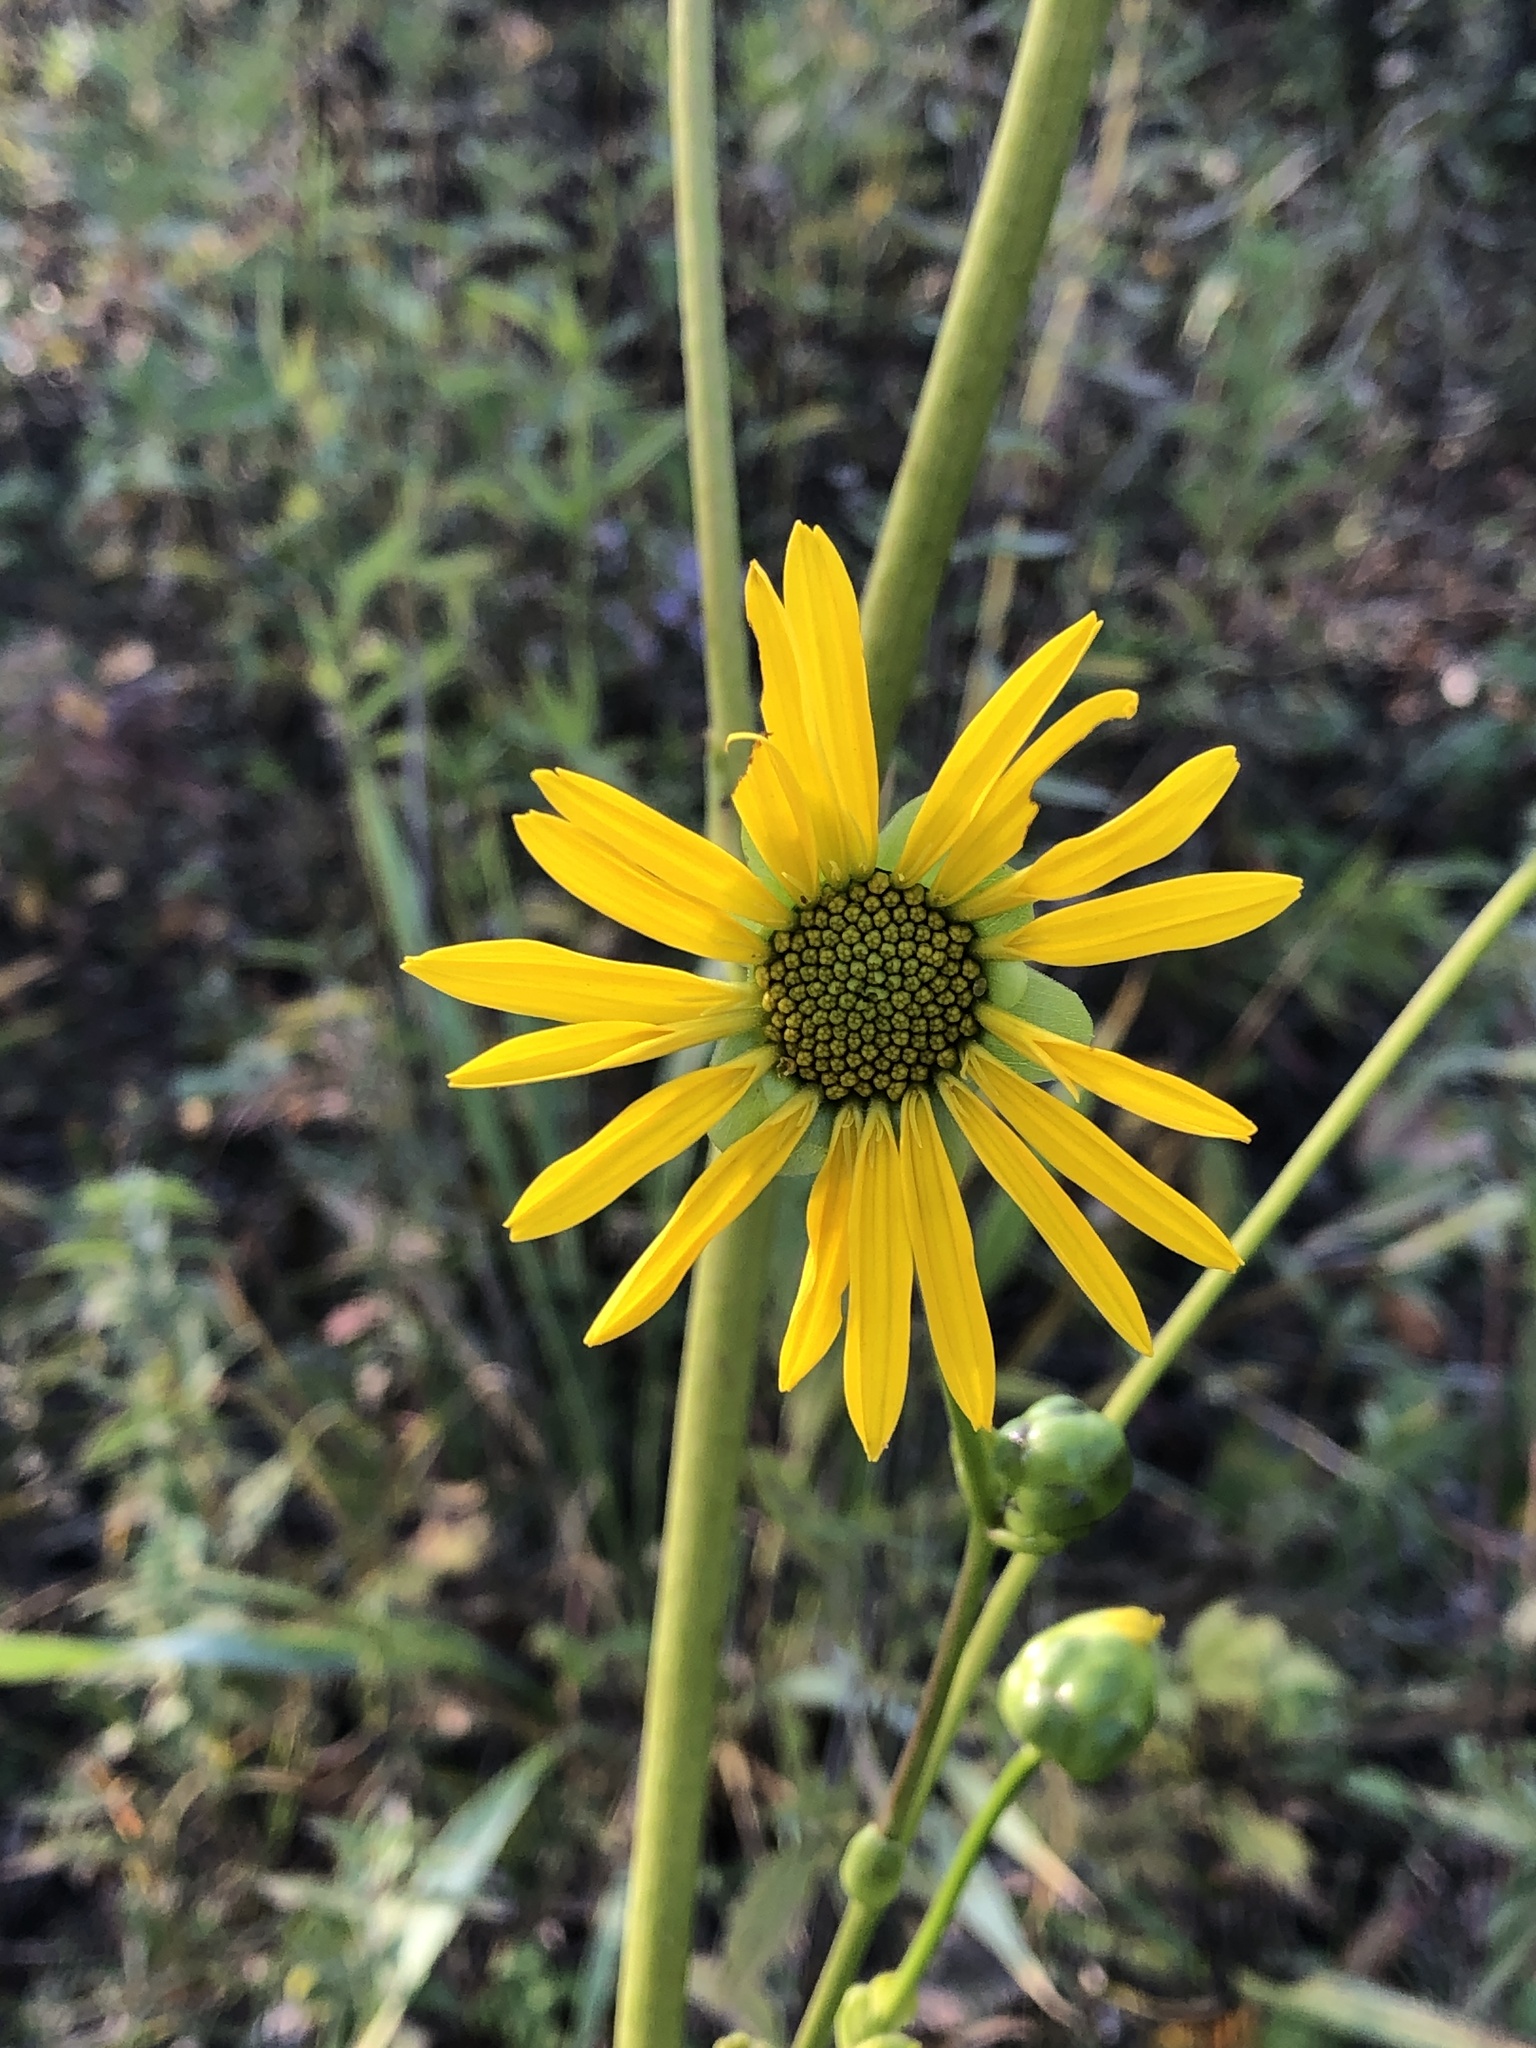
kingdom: Plantae
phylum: Tracheophyta
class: Magnoliopsida
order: Asterales
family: Asteraceae
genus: Silphium
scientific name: Silphium terebinthinaceum
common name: Basal-leaf rosinweed
